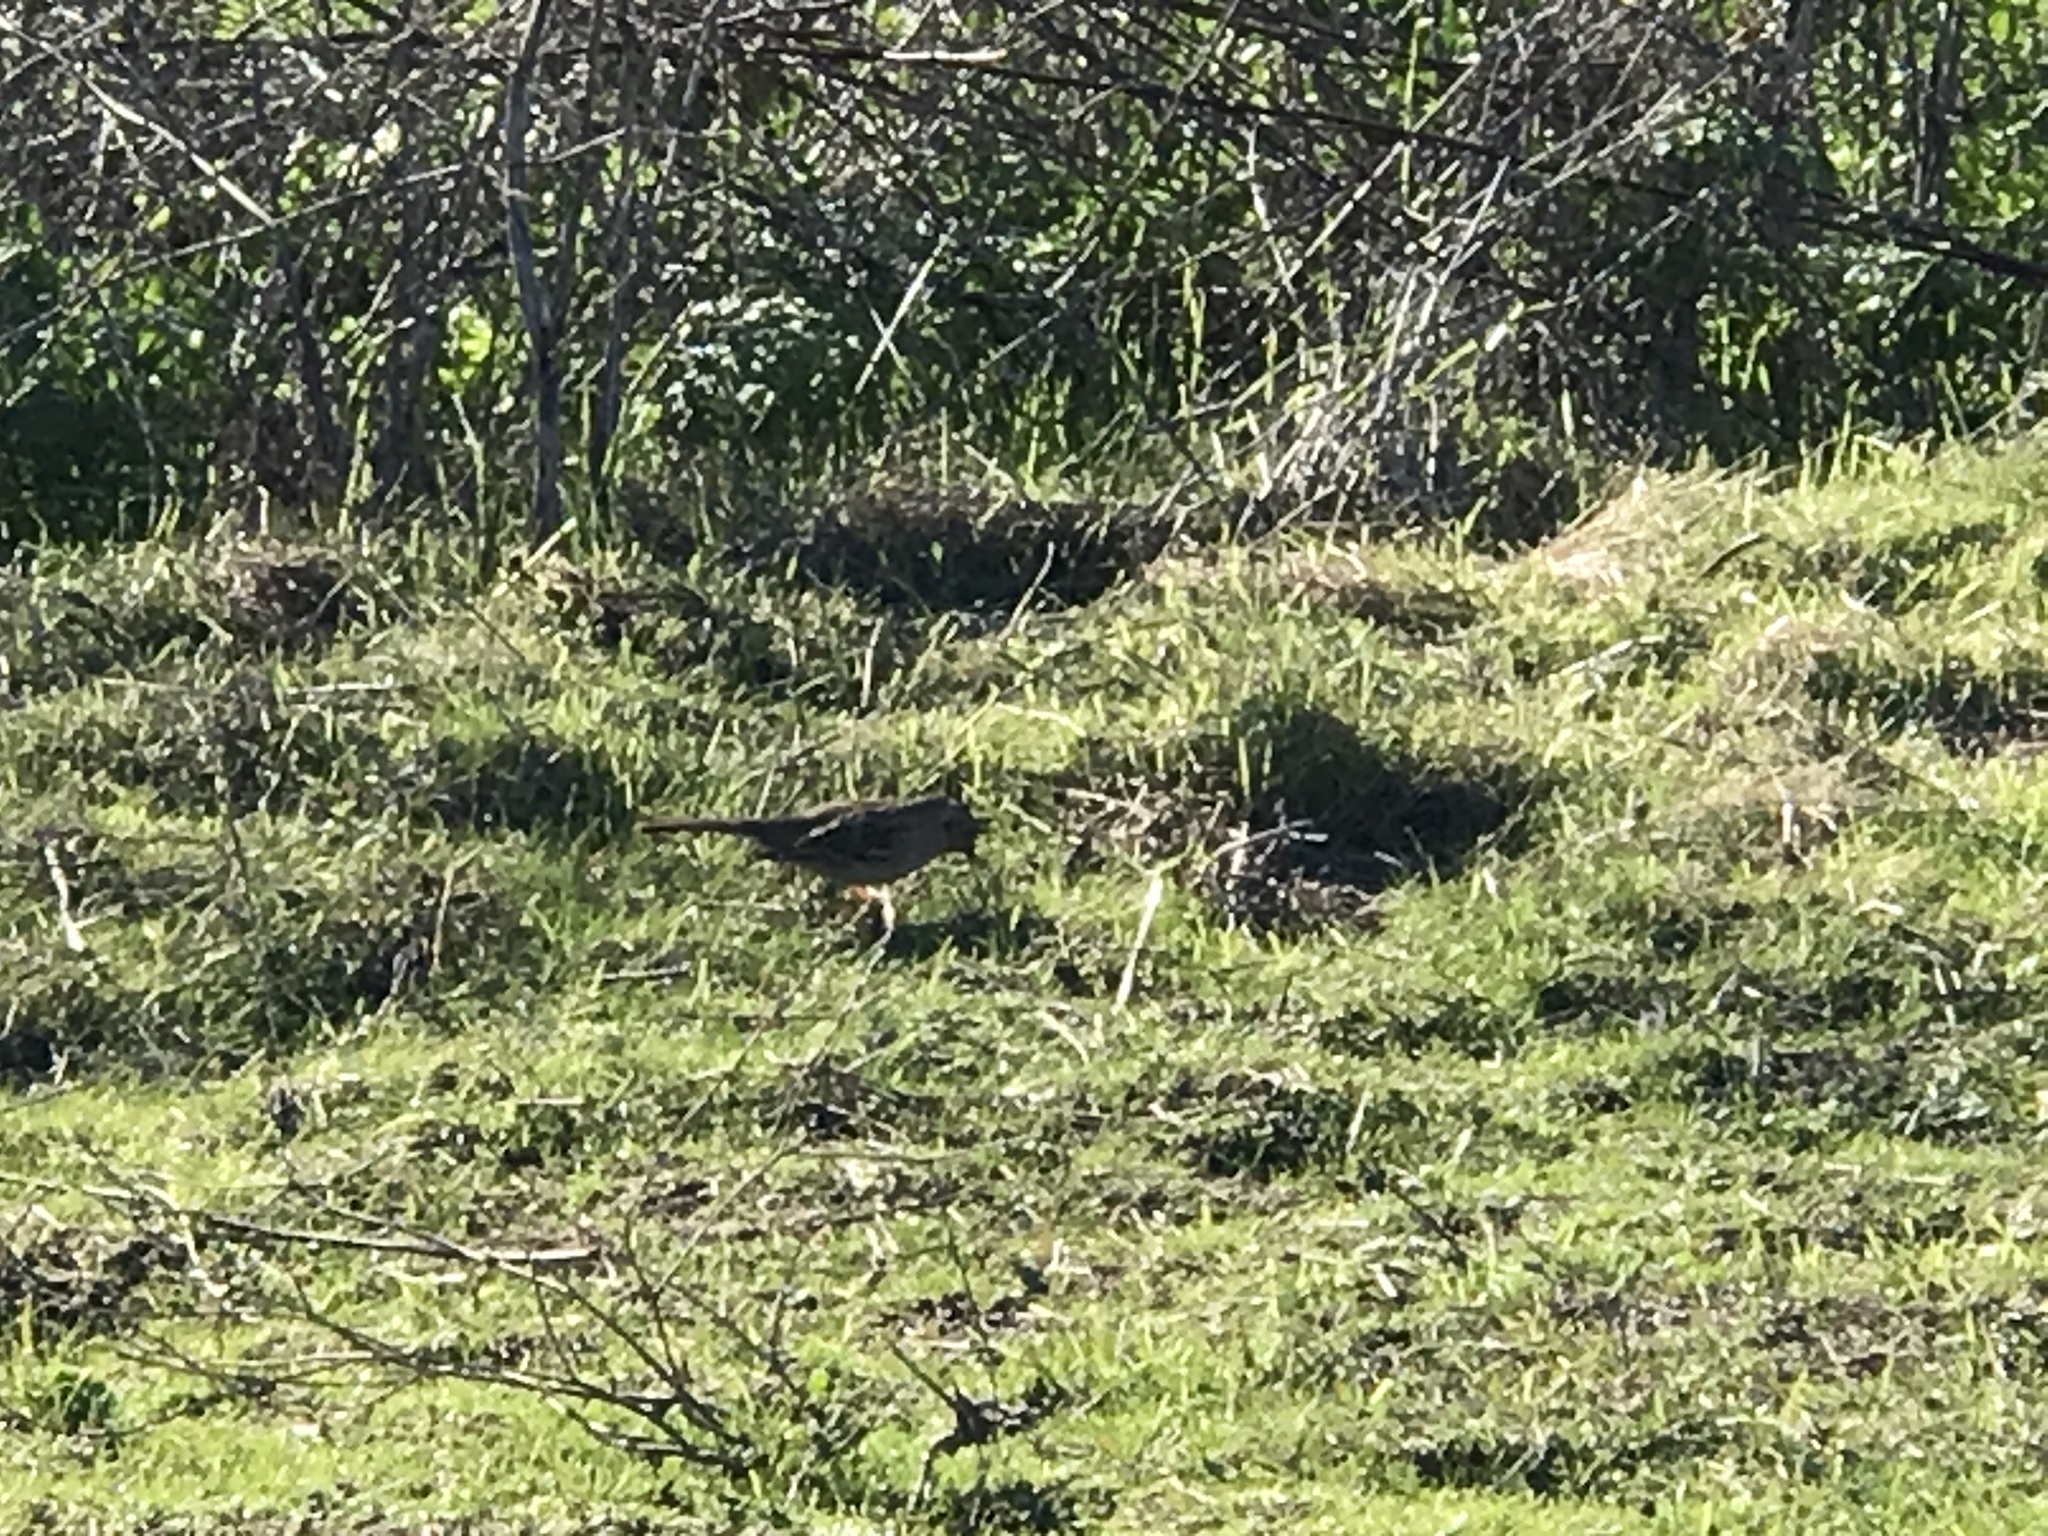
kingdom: Animalia
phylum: Chordata
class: Aves
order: Passeriformes
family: Passerellidae
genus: Zonotrichia
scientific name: Zonotrichia atricapilla
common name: Golden-crowned sparrow
